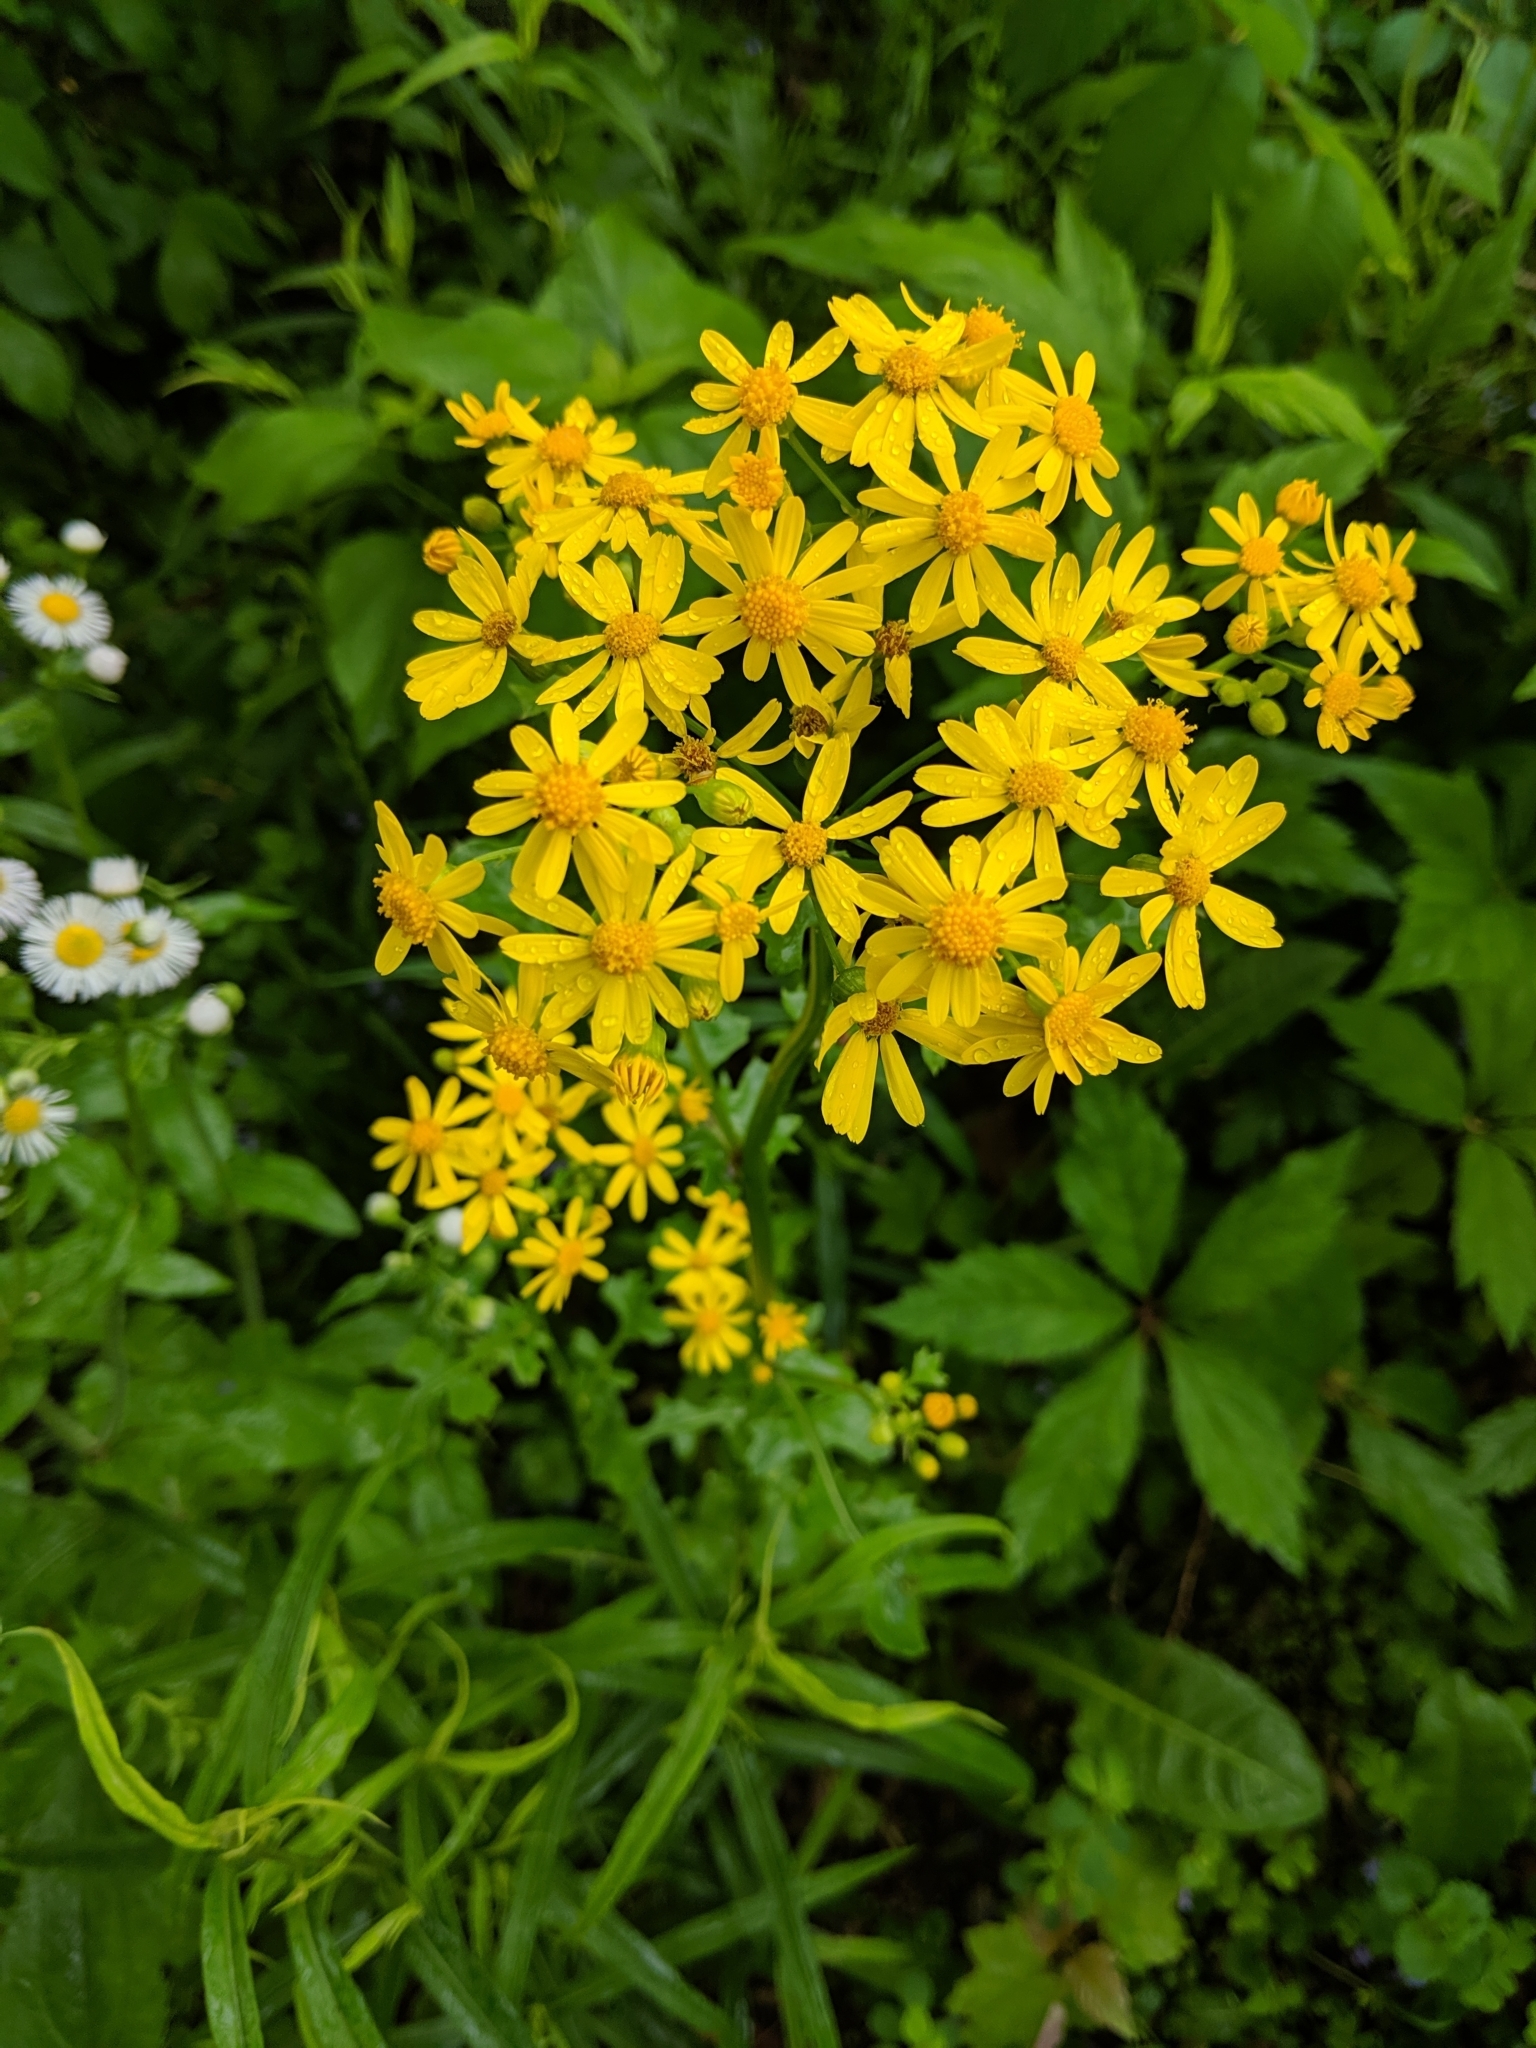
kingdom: Plantae
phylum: Tracheophyta
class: Magnoliopsida
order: Asterales
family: Asteraceae
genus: Packera
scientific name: Packera glabella
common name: Butterweed
